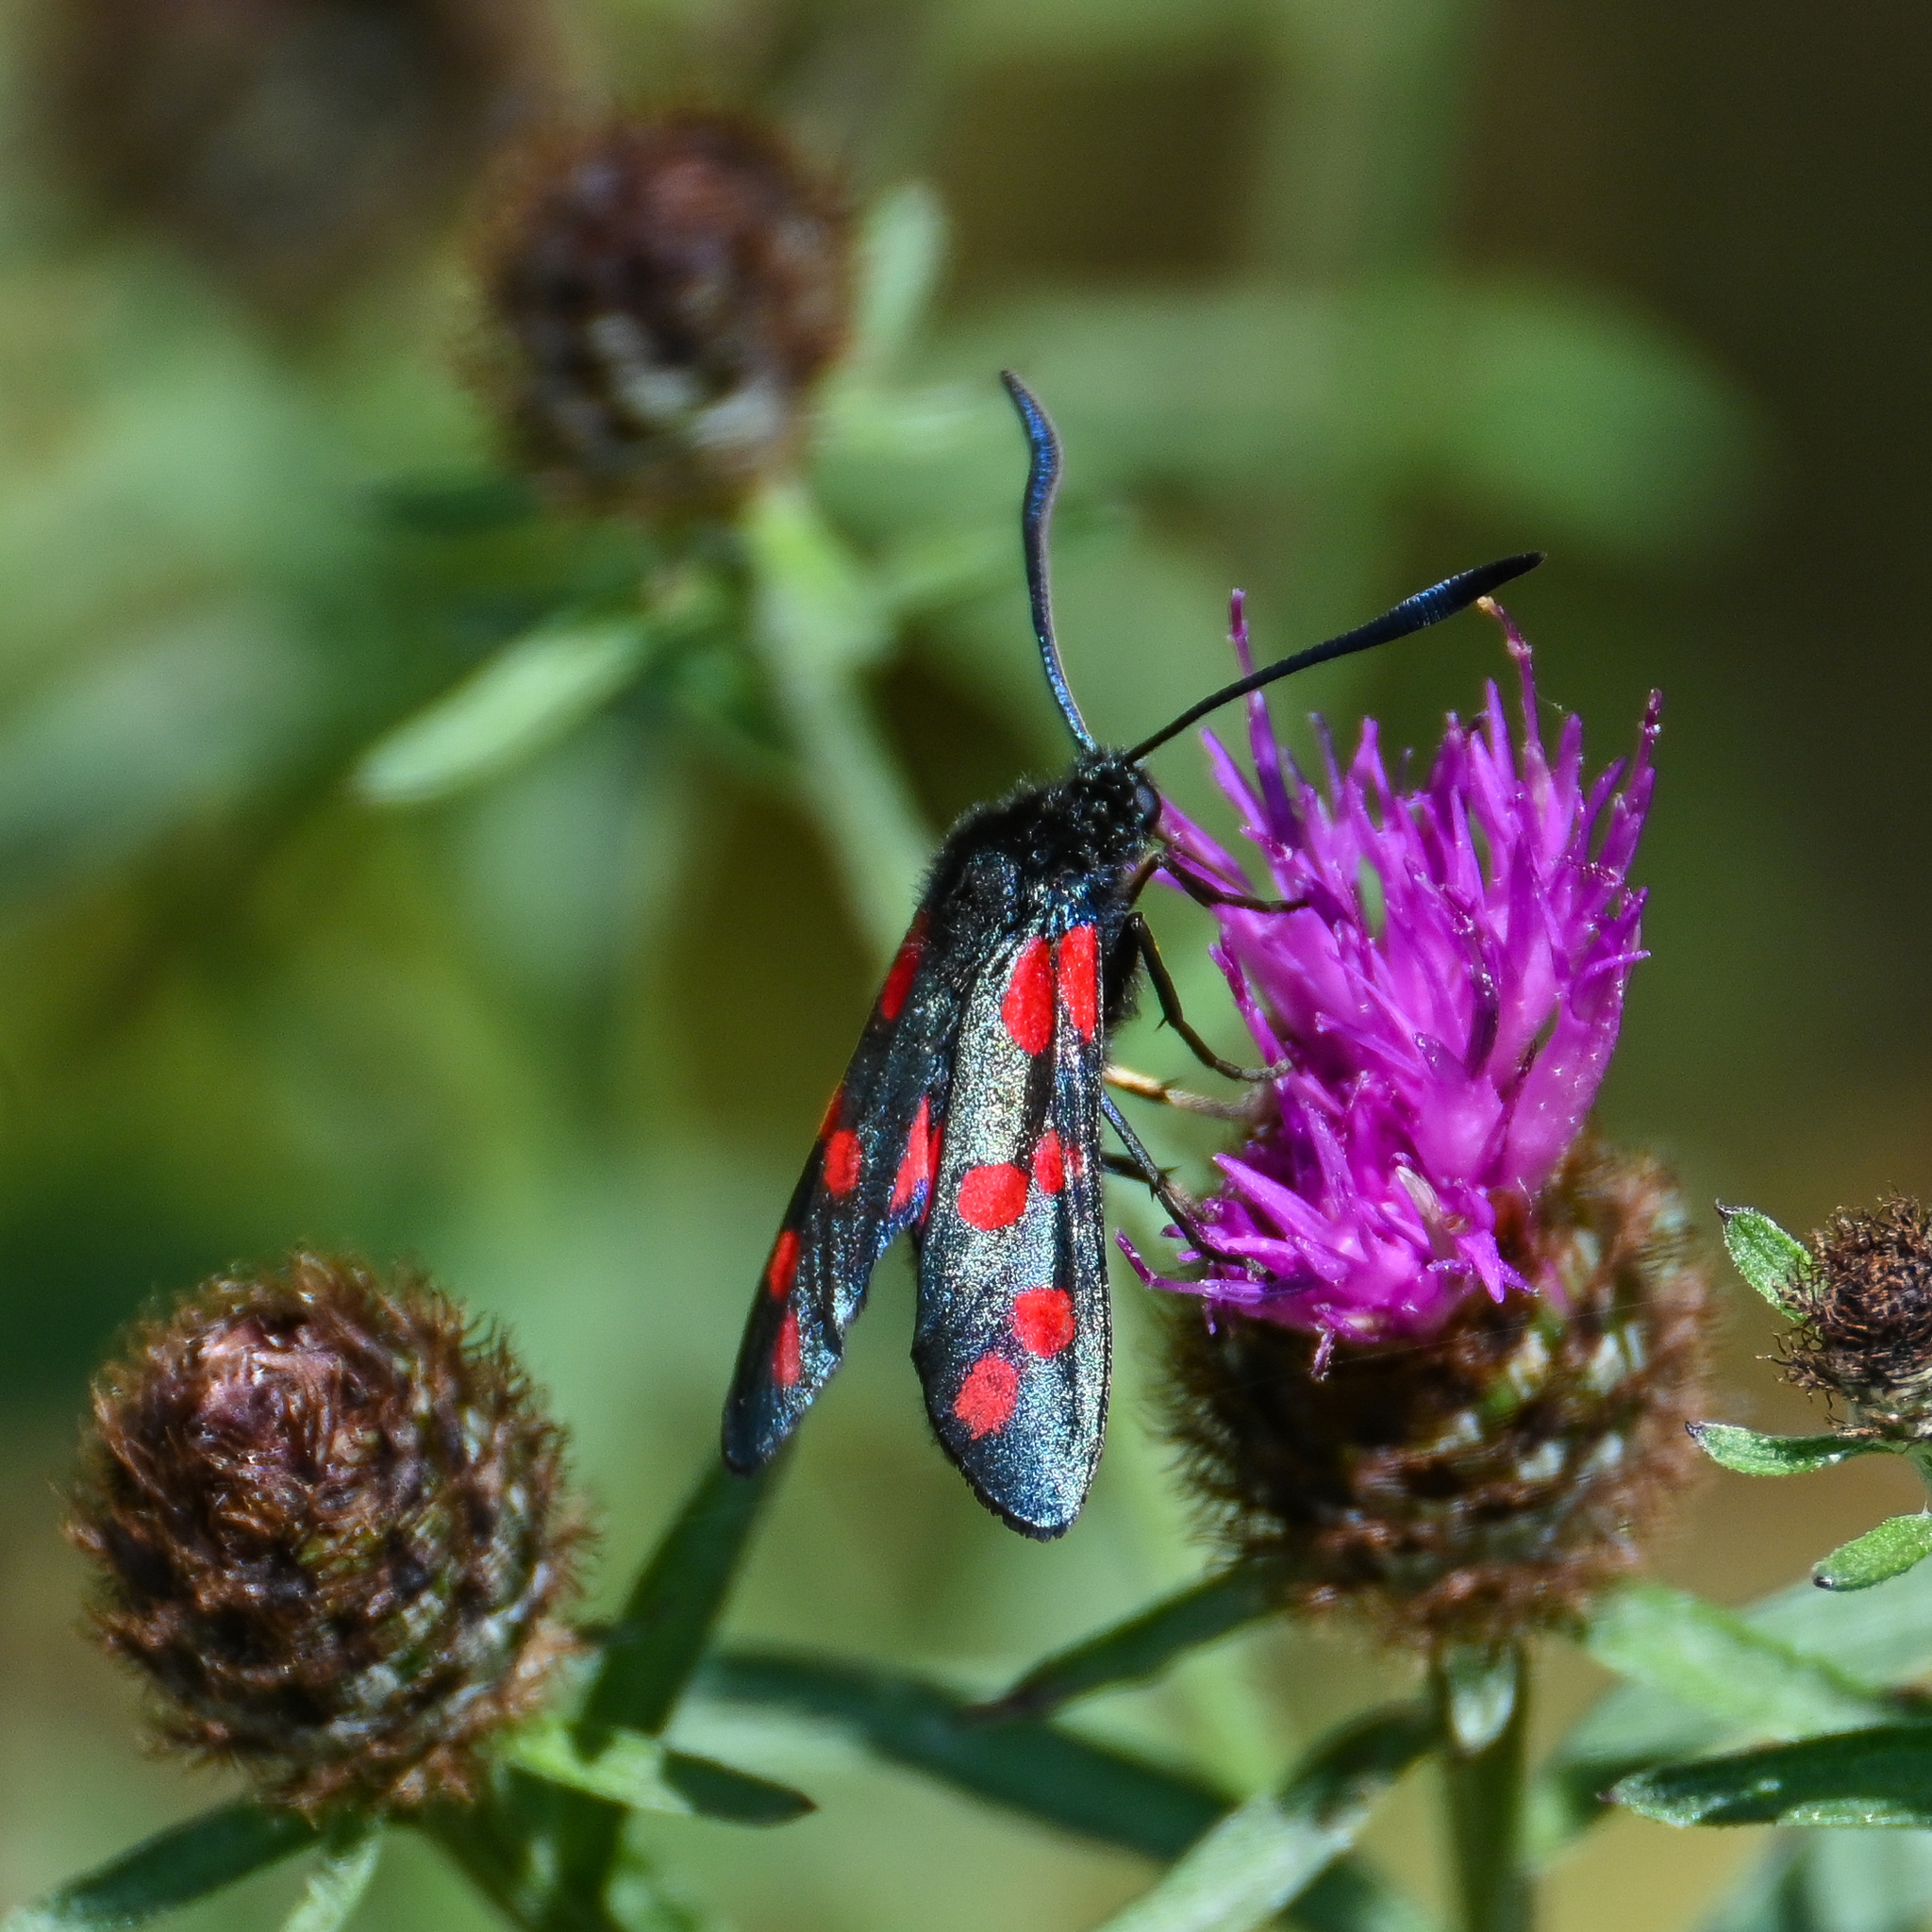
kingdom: Animalia
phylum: Arthropoda
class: Insecta
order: Lepidoptera
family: Zygaenidae
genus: Zygaena
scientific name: Zygaena filipendulae
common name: Six-spot burnet
